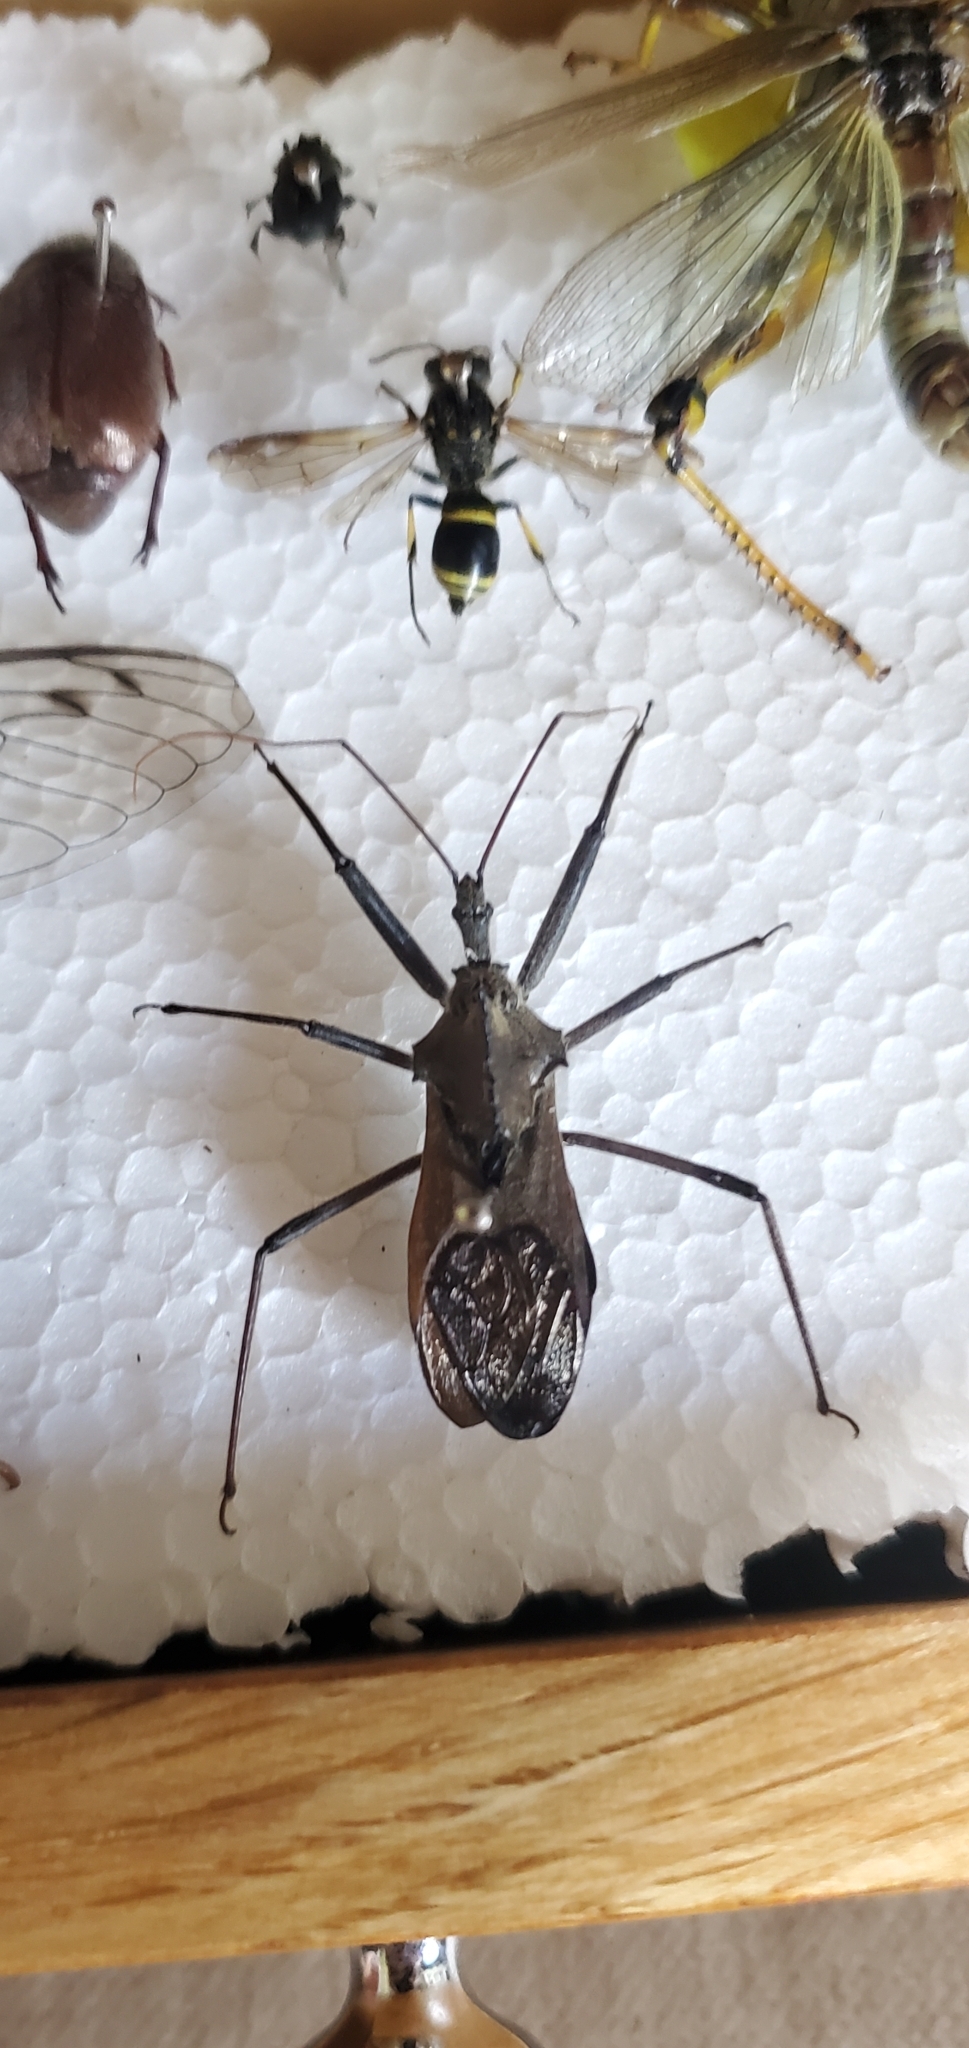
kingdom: Animalia
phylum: Arthropoda
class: Insecta
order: Hemiptera
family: Reduviidae
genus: Arilus
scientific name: Arilus cristatus
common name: North american wheel bug
